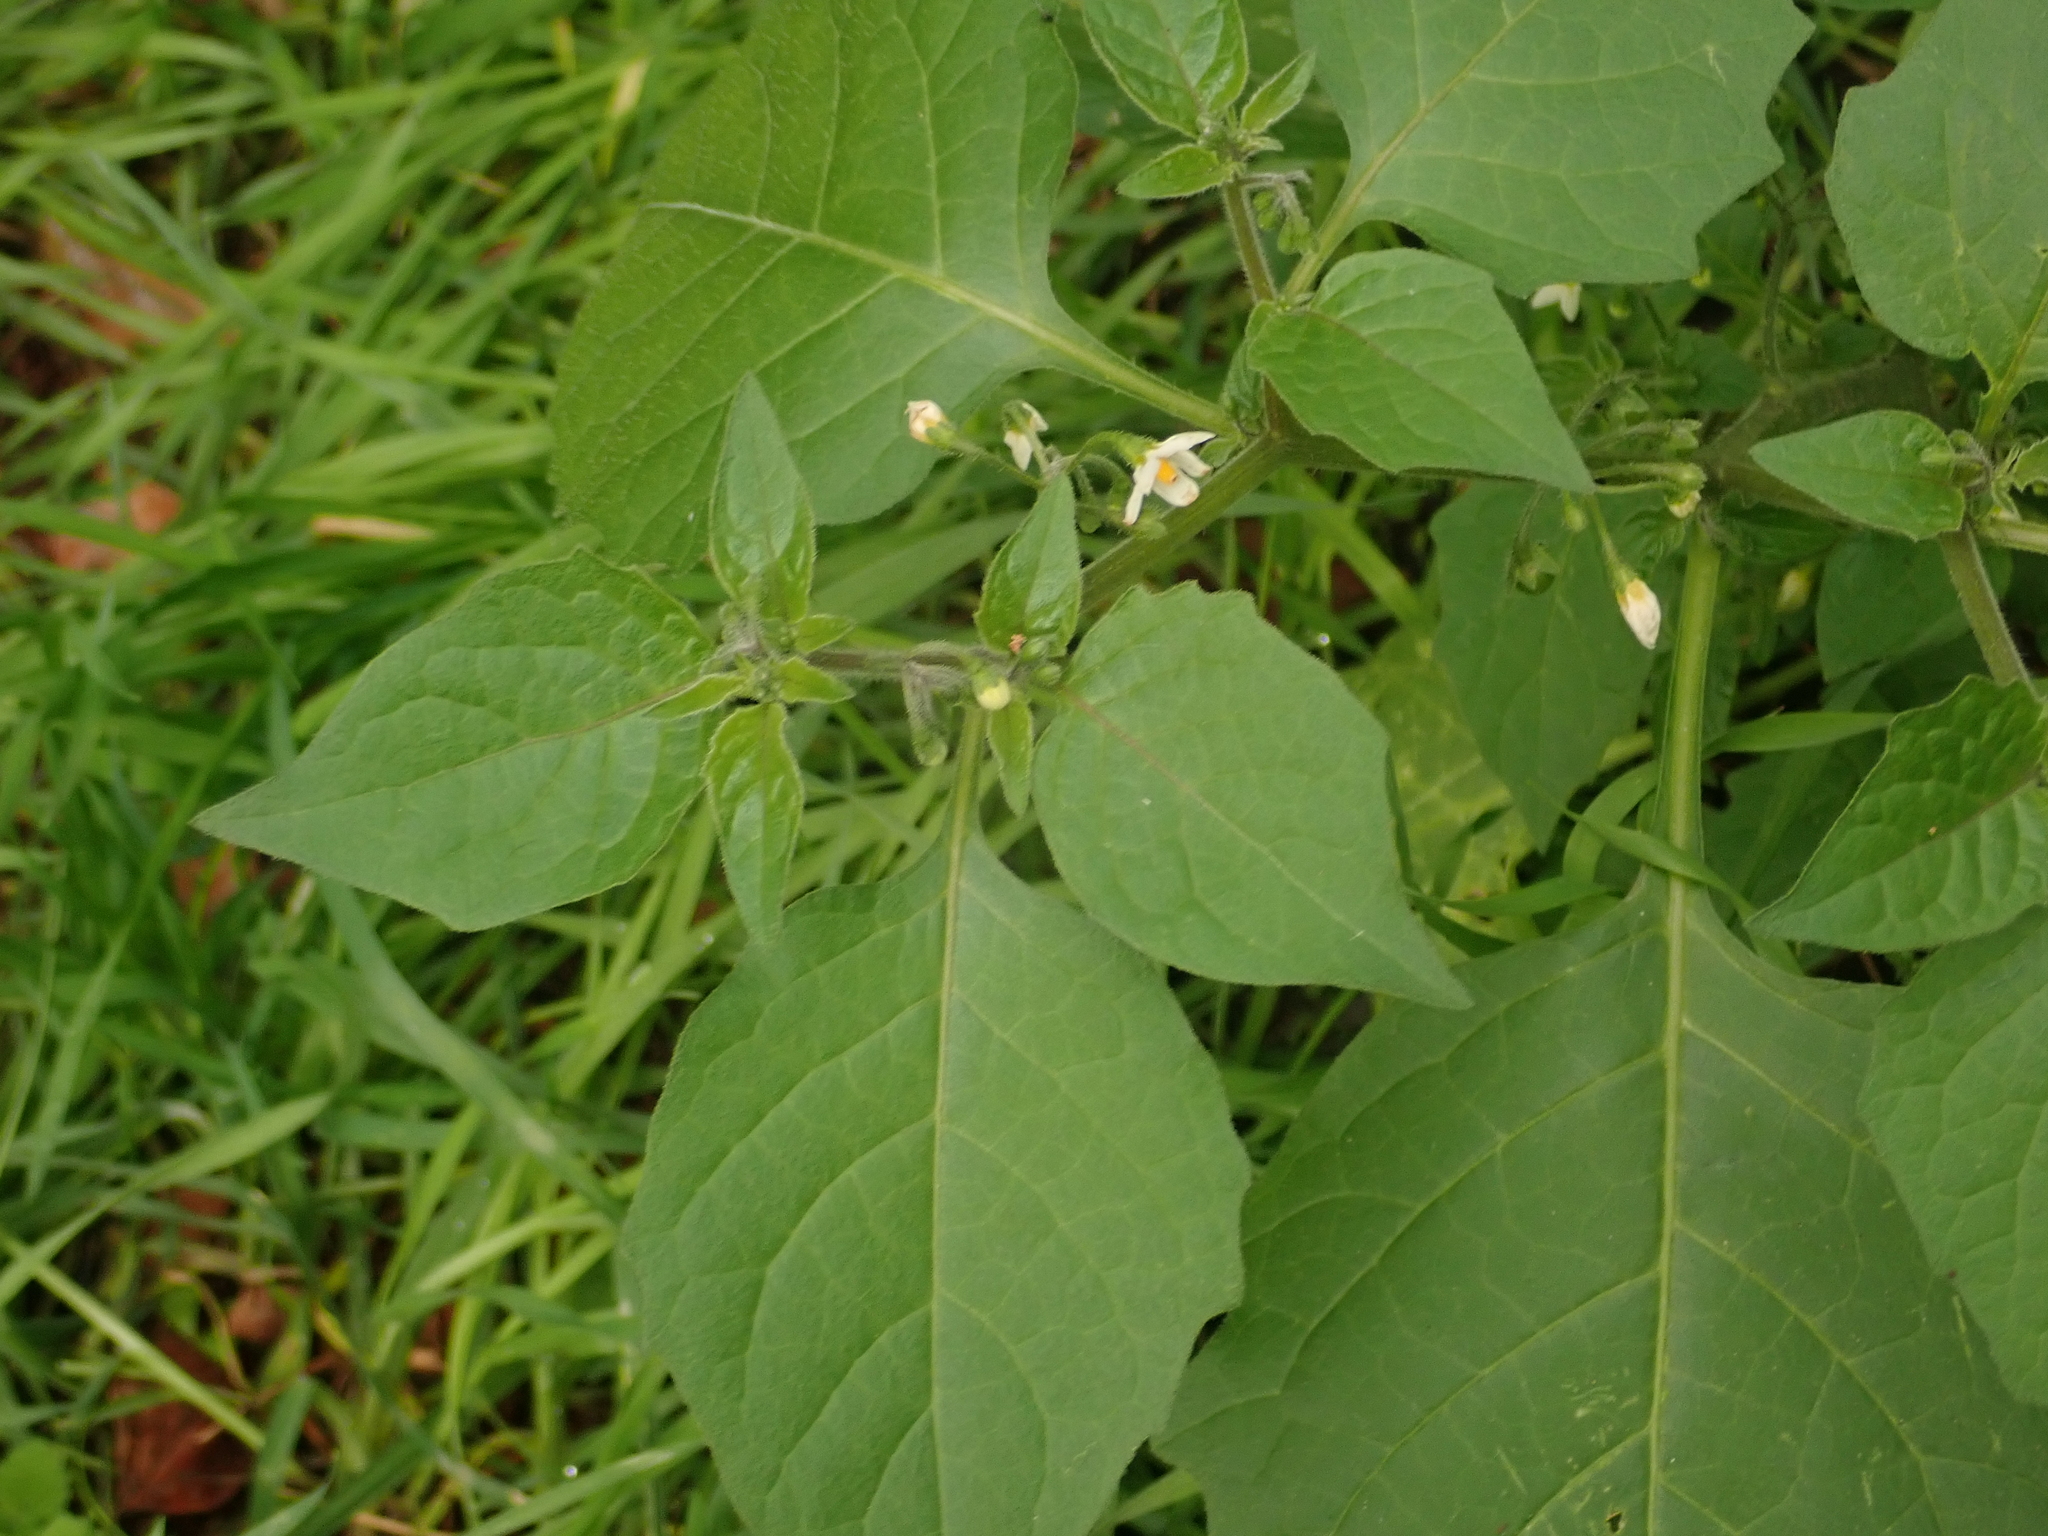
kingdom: Plantae
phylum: Tracheophyta
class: Magnoliopsida
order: Solanales
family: Solanaceae
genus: Solanum
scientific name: Solanum nigrum
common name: Black nightshade
